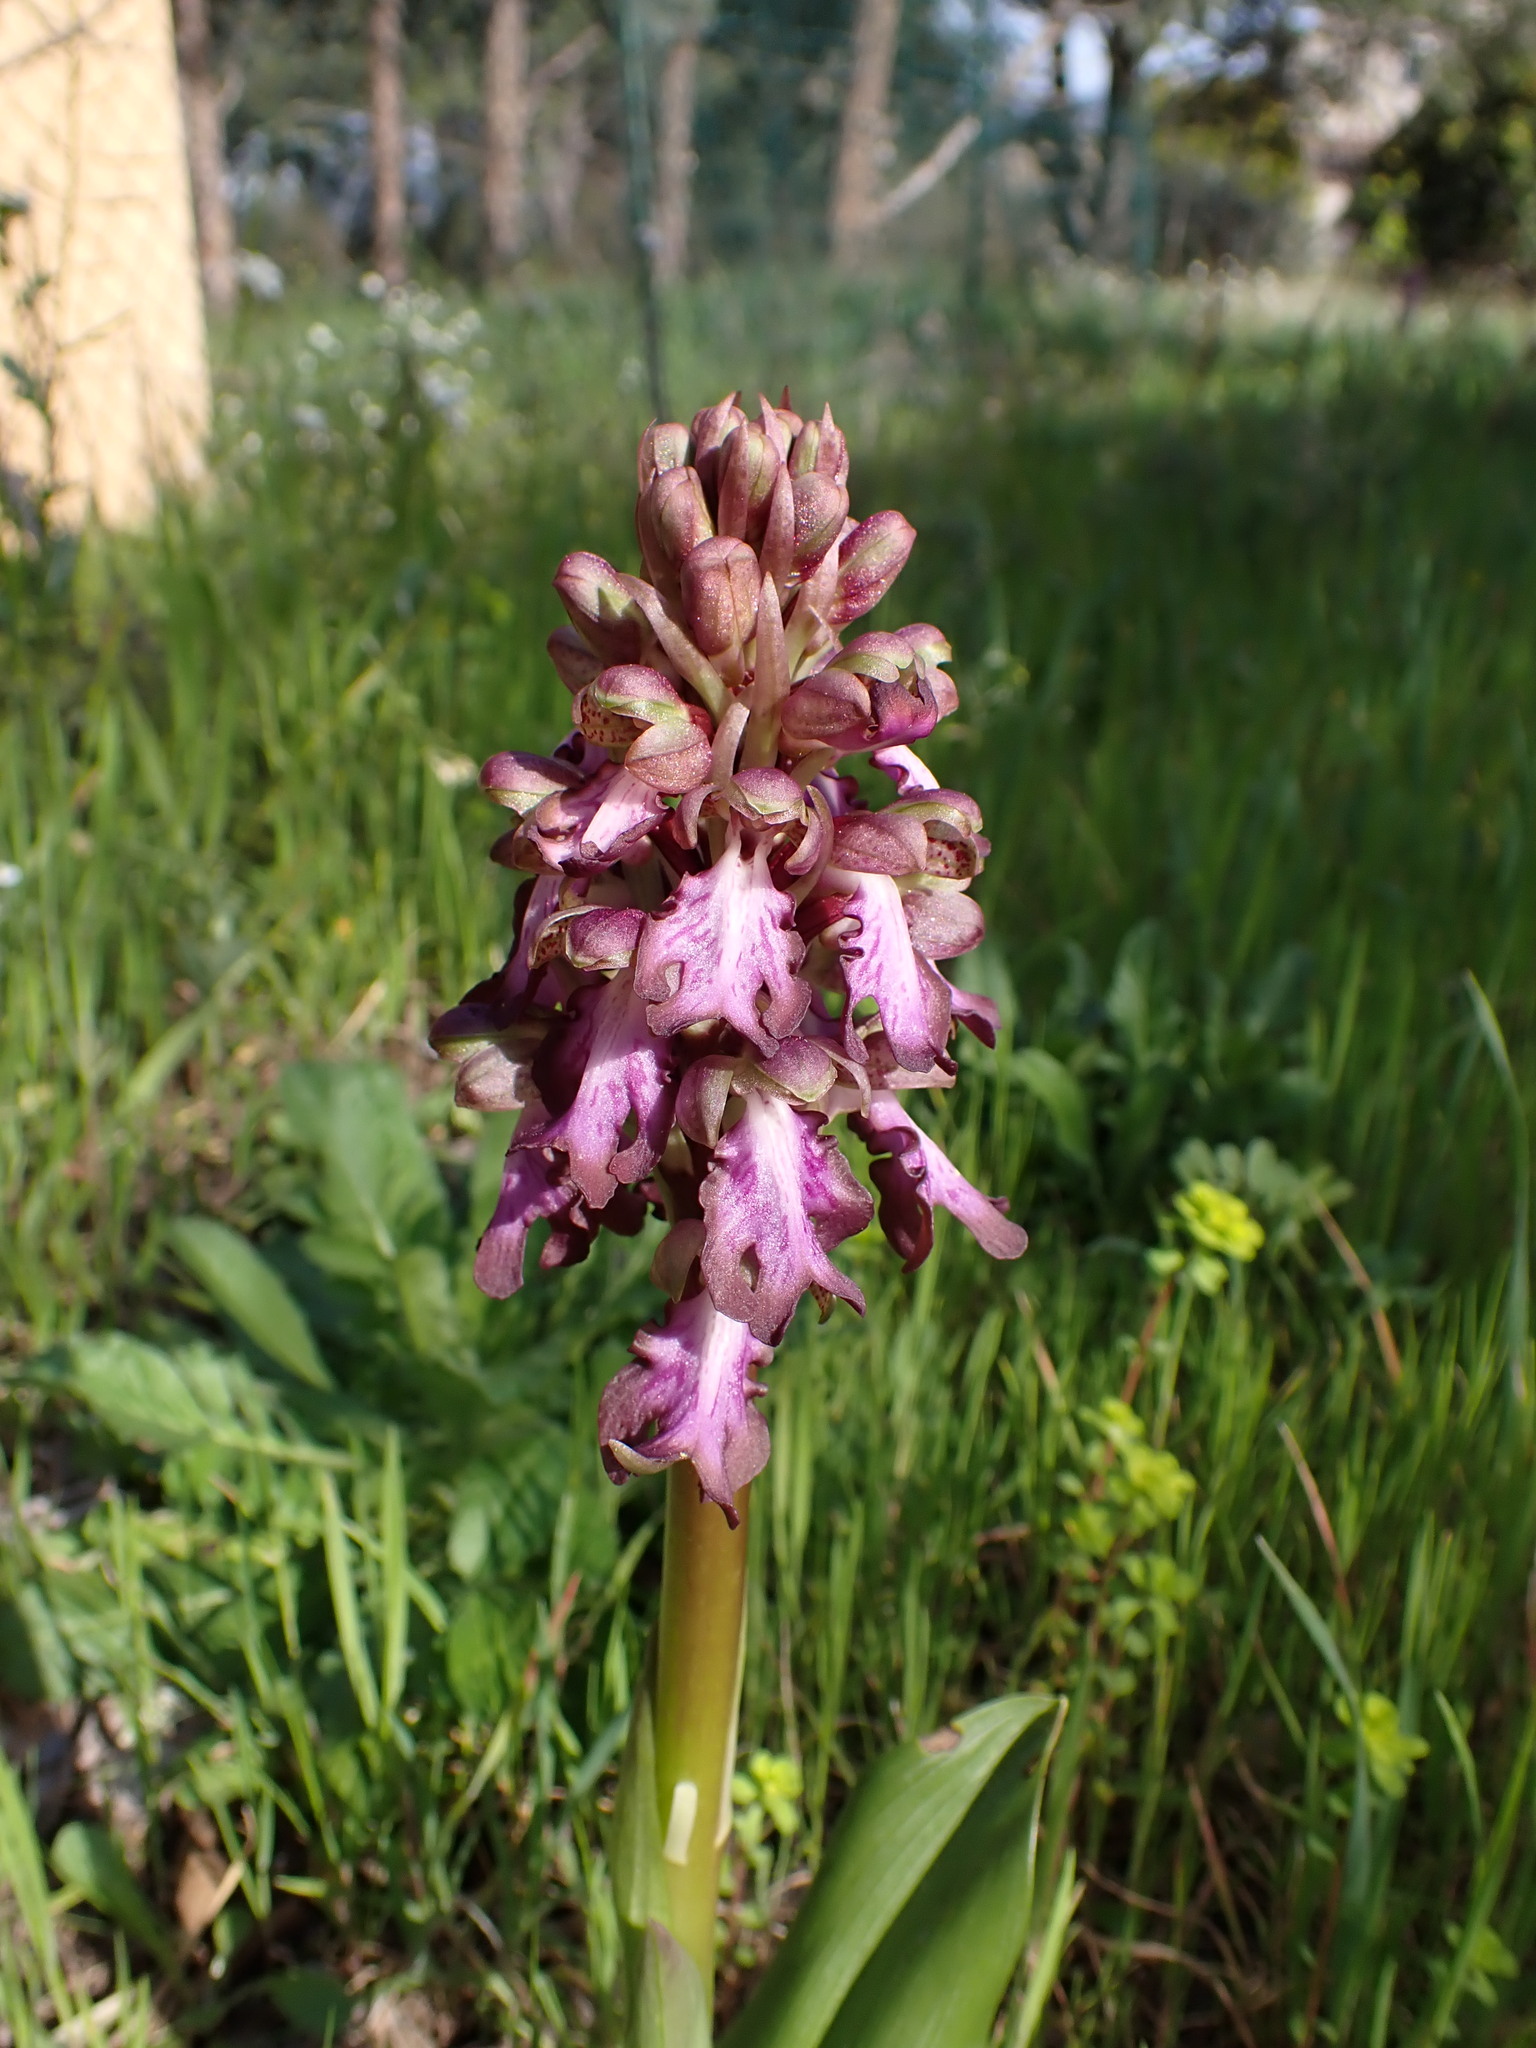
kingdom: Plantae
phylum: Tracheophyta
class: Liliopsida
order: Asparagales
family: Orchidaceae
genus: Himantoglossum
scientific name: Himantoglossum robertianum
